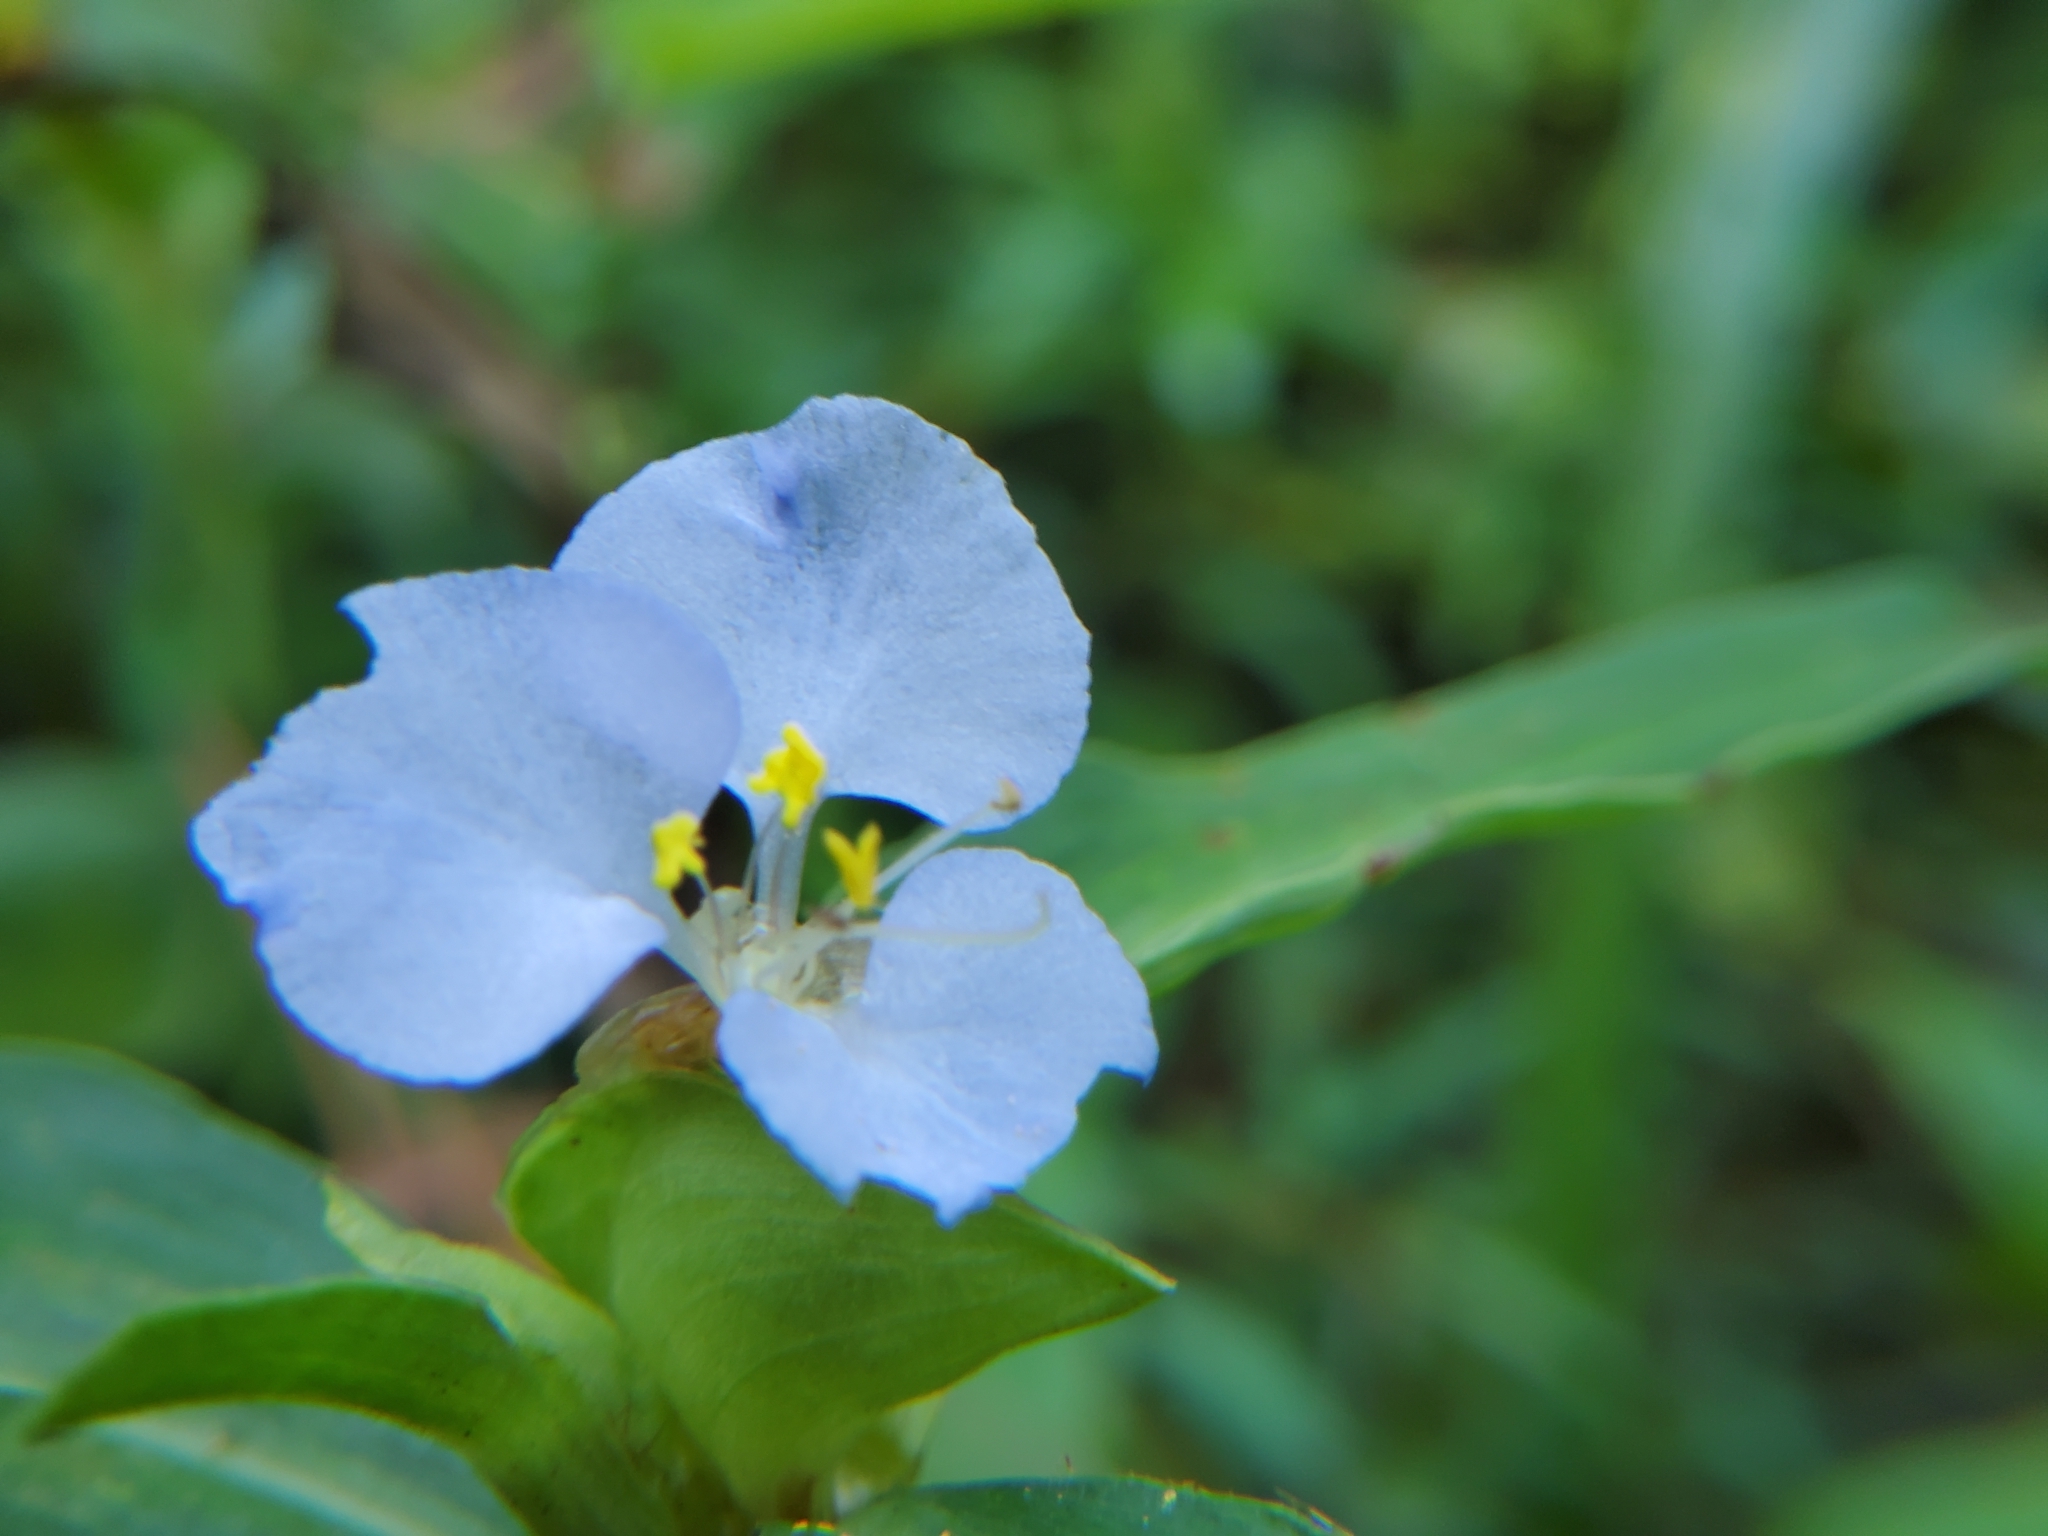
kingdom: Plantae
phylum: Tracheophyta
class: Liliopsida
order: Commelinales
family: Commelinaceae
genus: Commelina
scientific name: Commelina virginica
